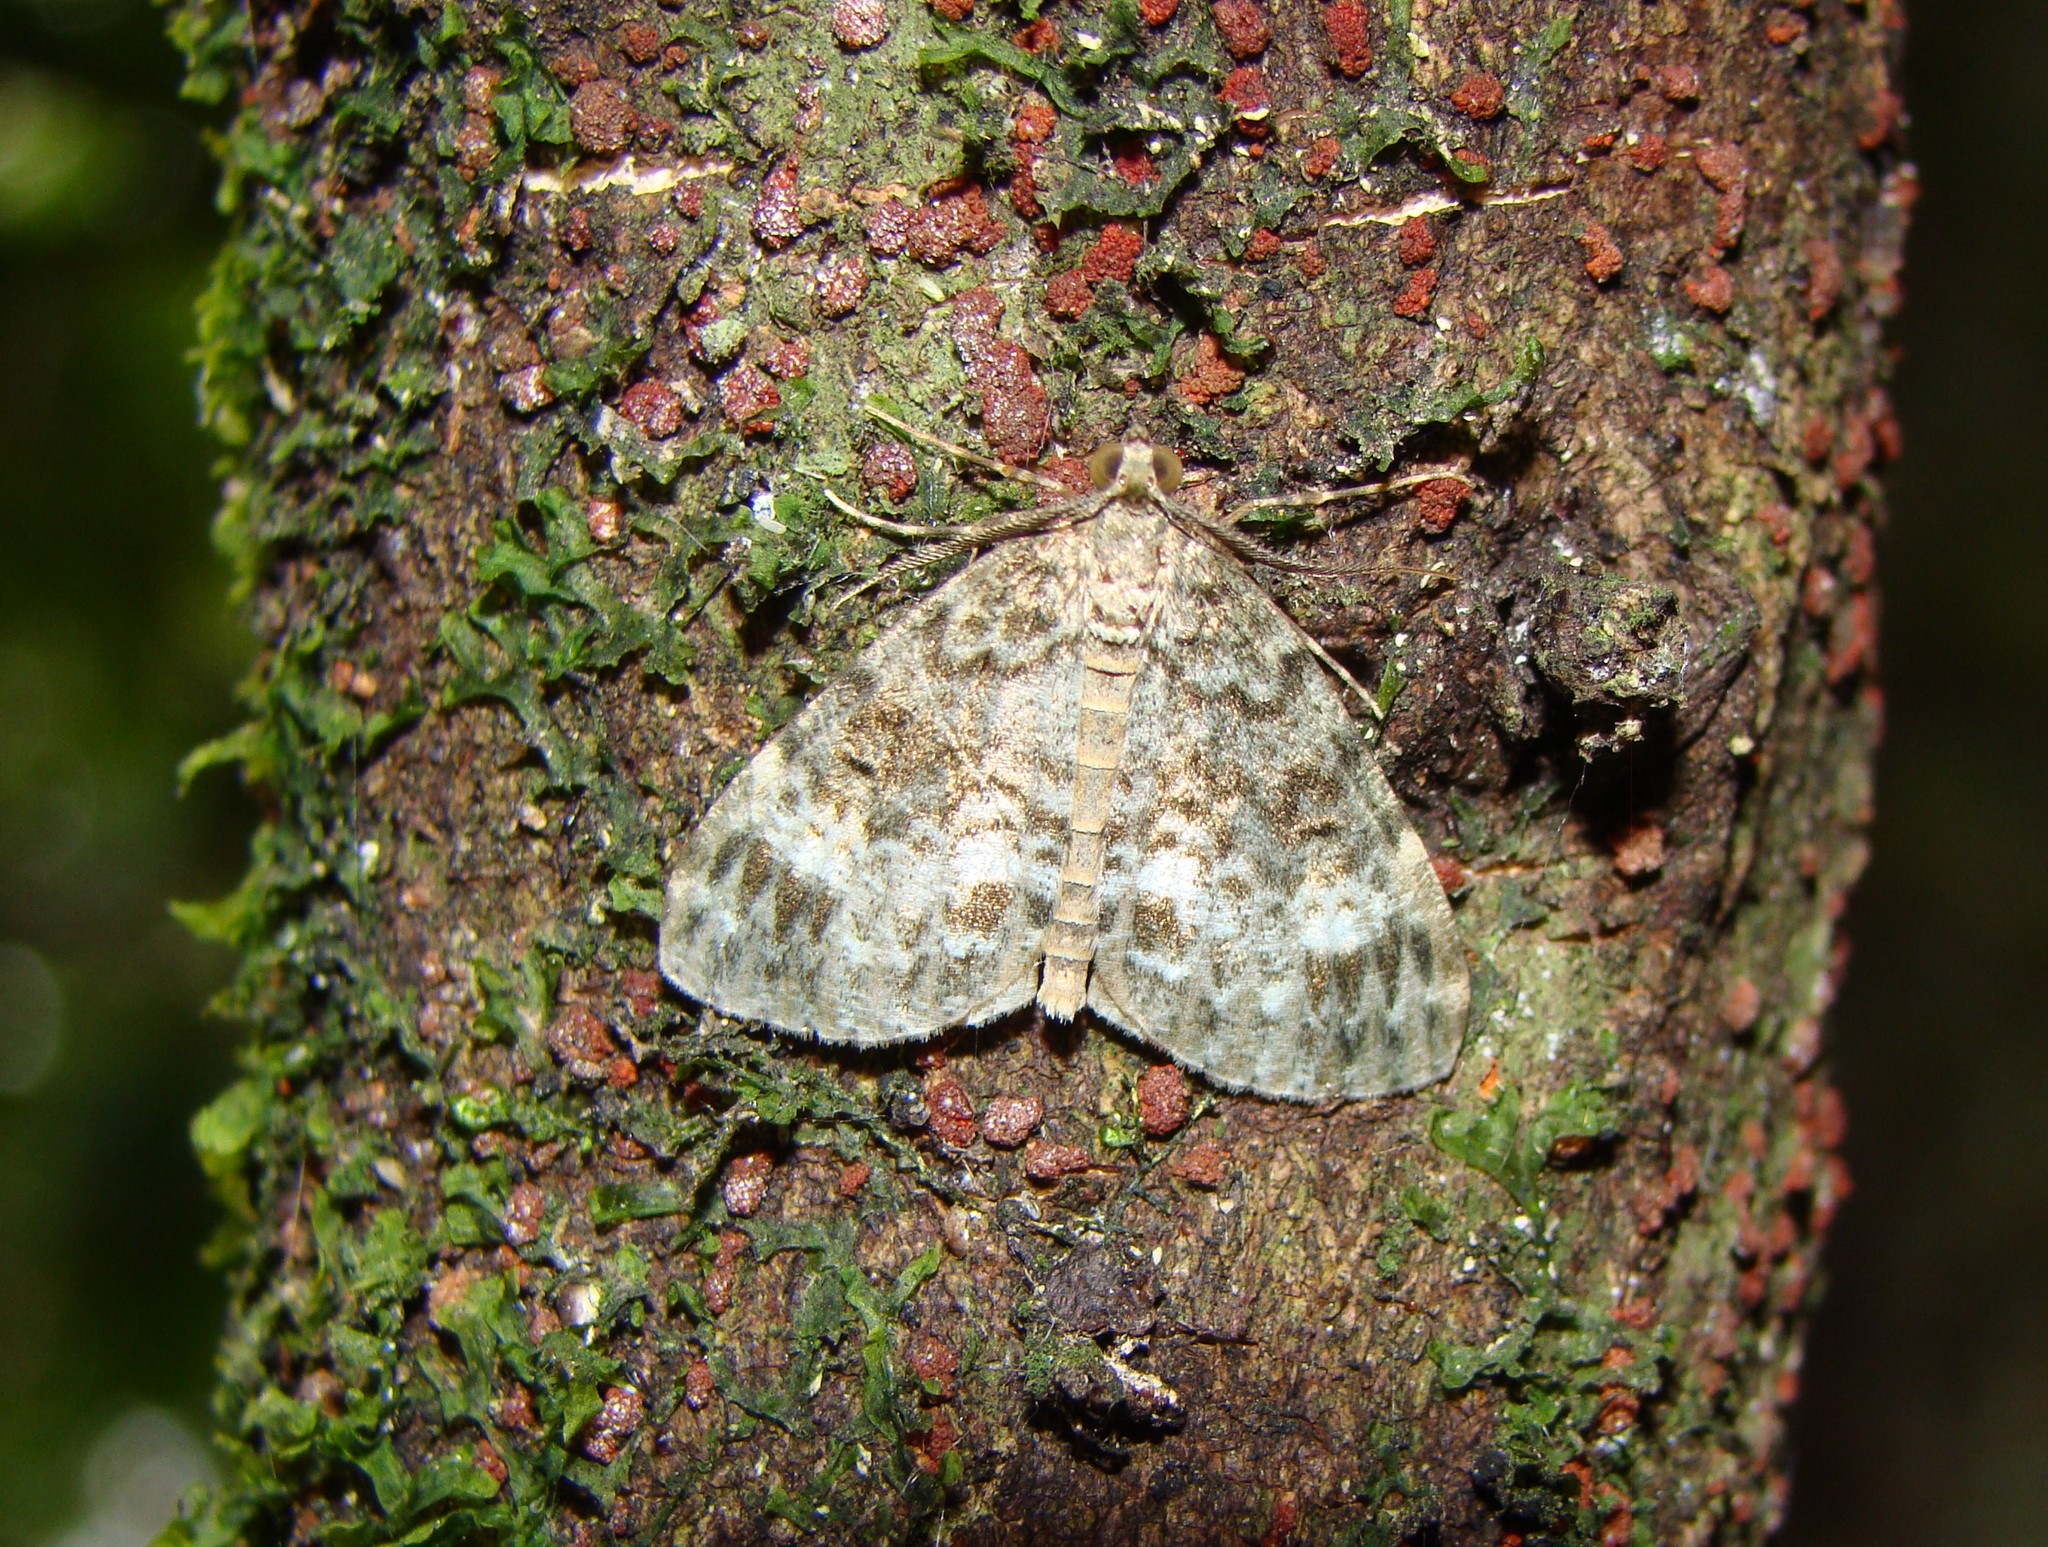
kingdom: Animalia
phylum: Arthropoda
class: Insecta
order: Lepidoptera
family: Geometridae
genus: Pseudocoremia
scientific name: Pseudocoremia indistincta
